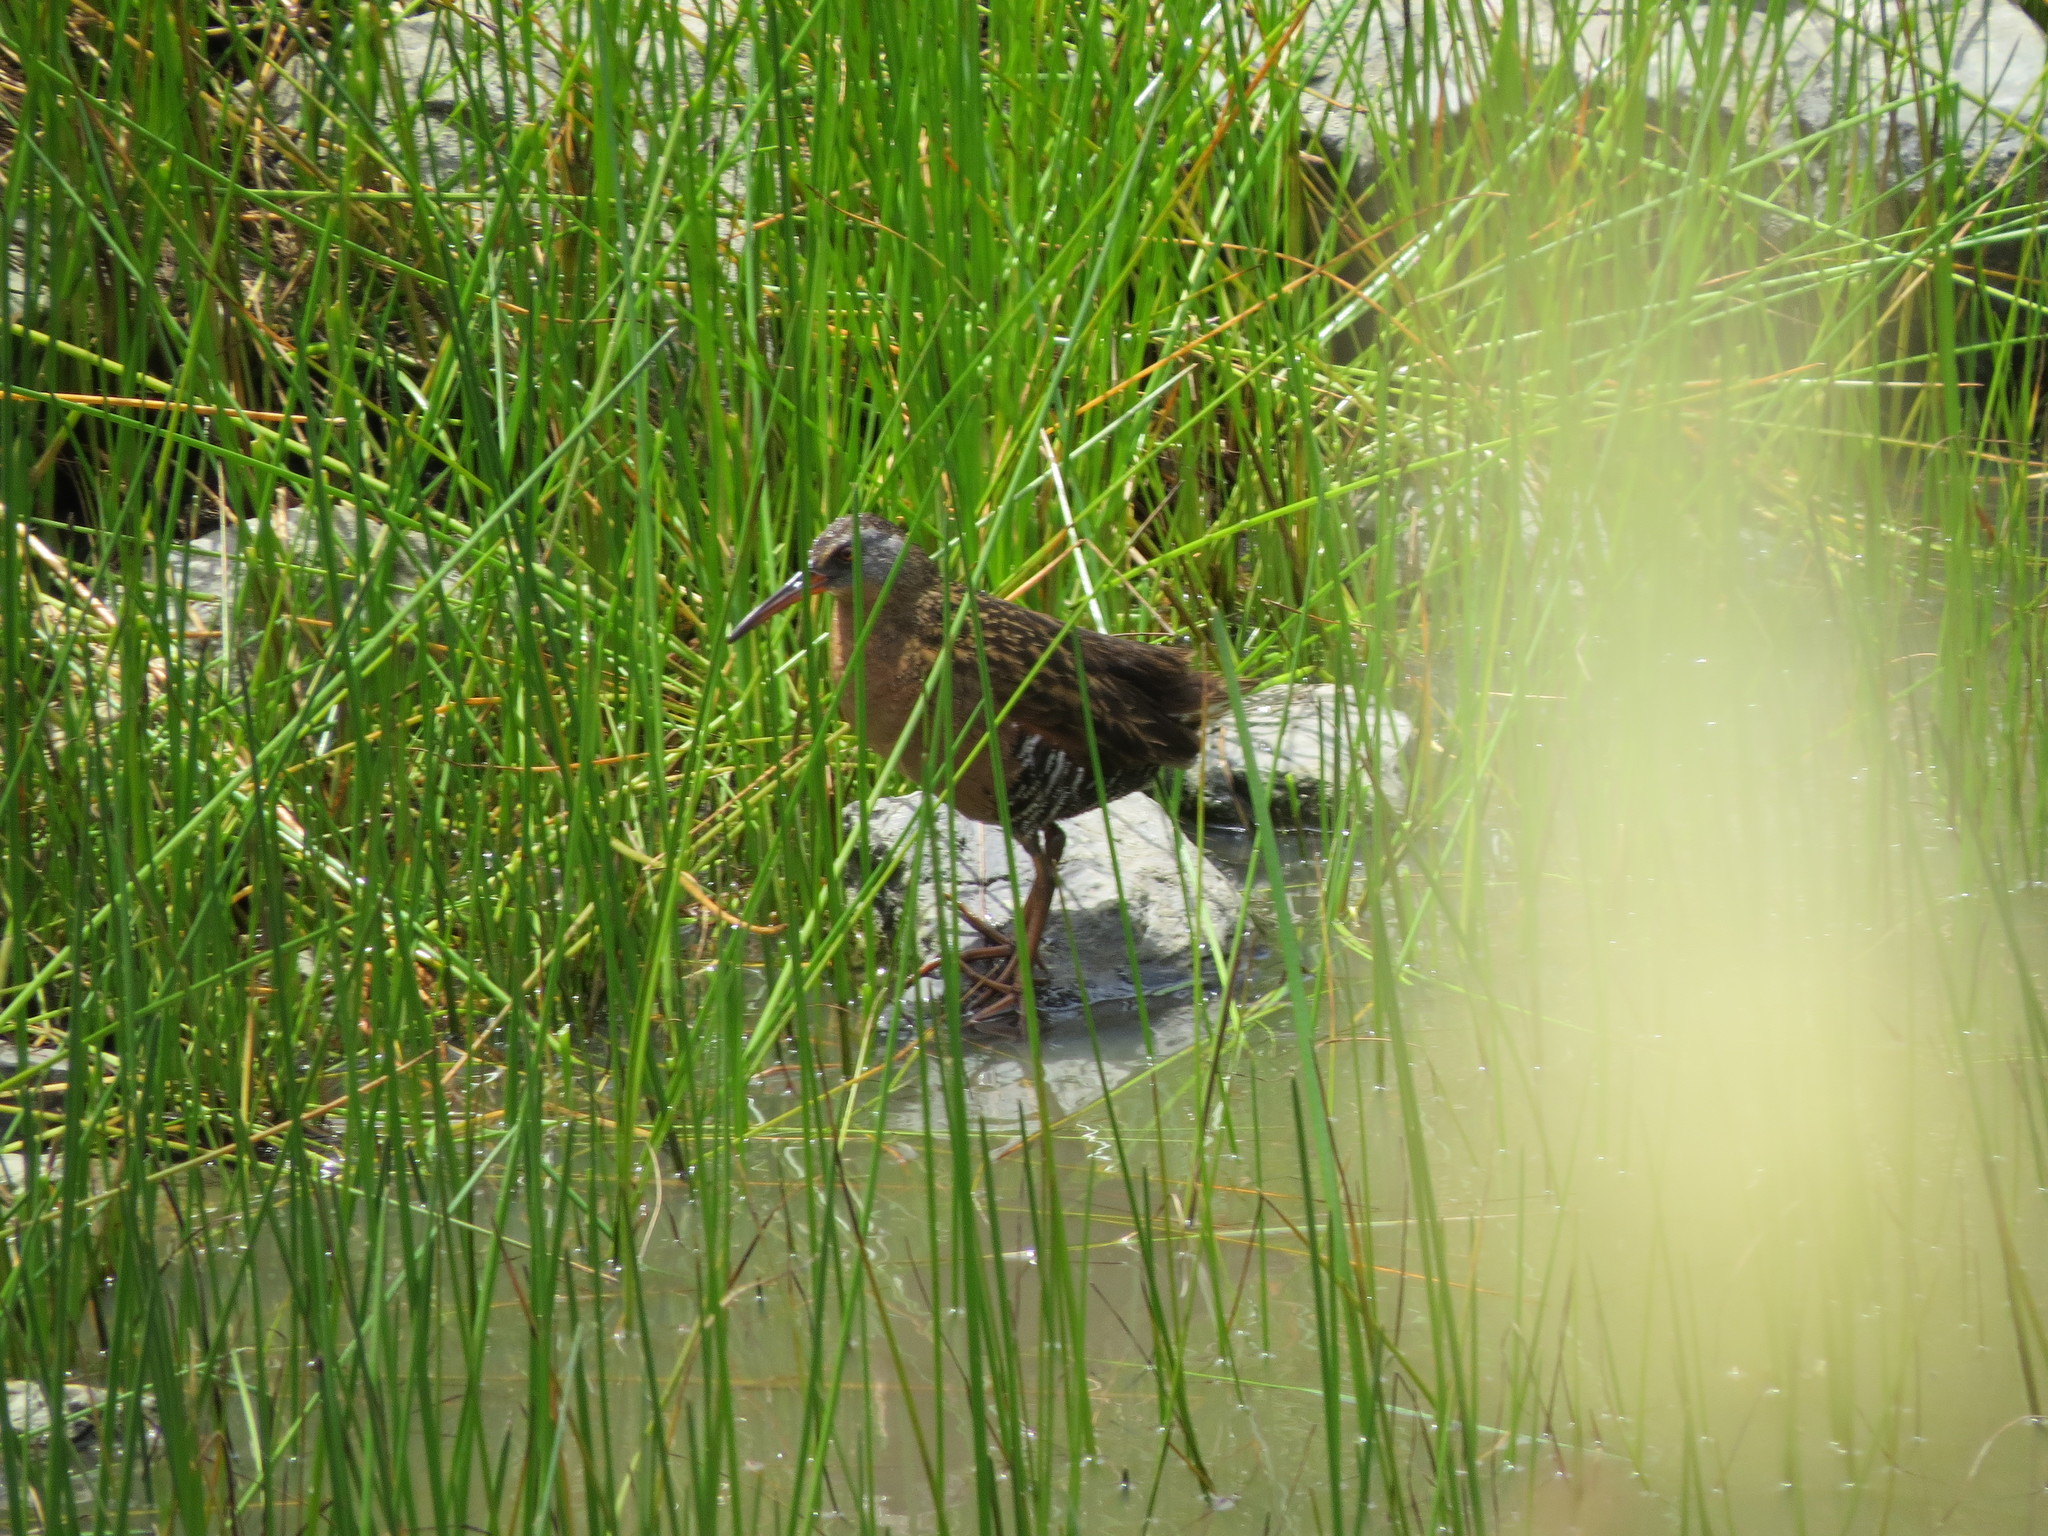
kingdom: Animalia
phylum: Chordata
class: Aves
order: Gruiformes
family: Rallidae
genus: Rallus
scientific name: Rallus limicola
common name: Virginia rail
